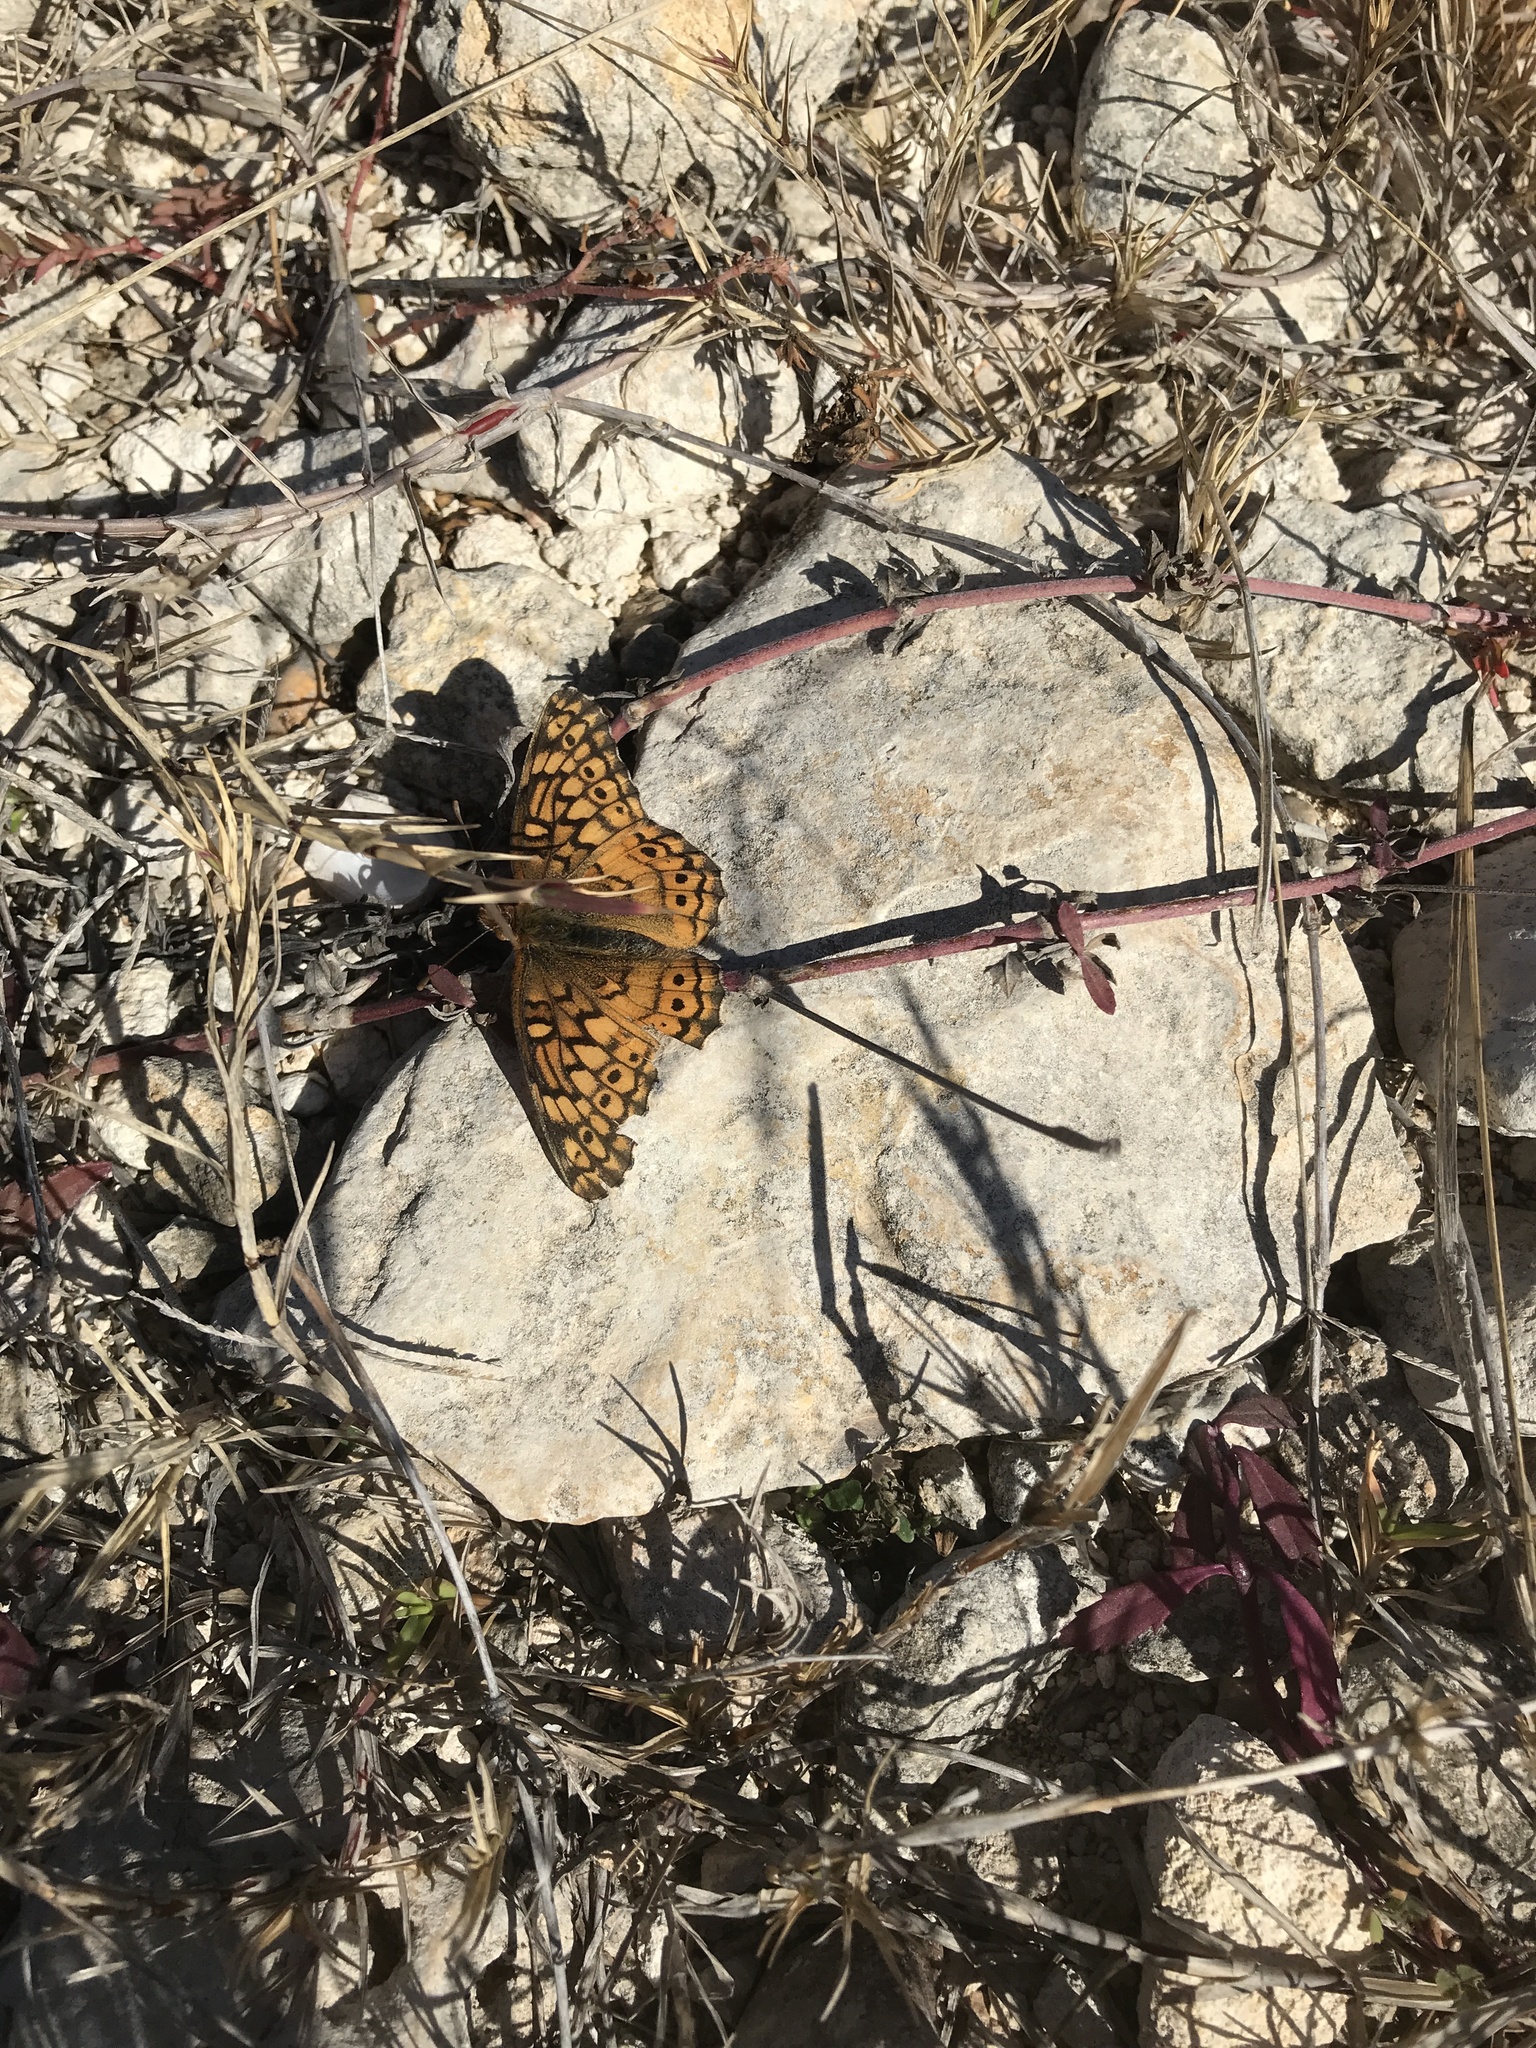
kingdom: Animalia
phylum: Arthropoda
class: Insecta
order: Lepidoptera
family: Nymphalidae
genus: Euptoieta
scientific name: Euptoieta claudia
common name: Variegated fritillary
